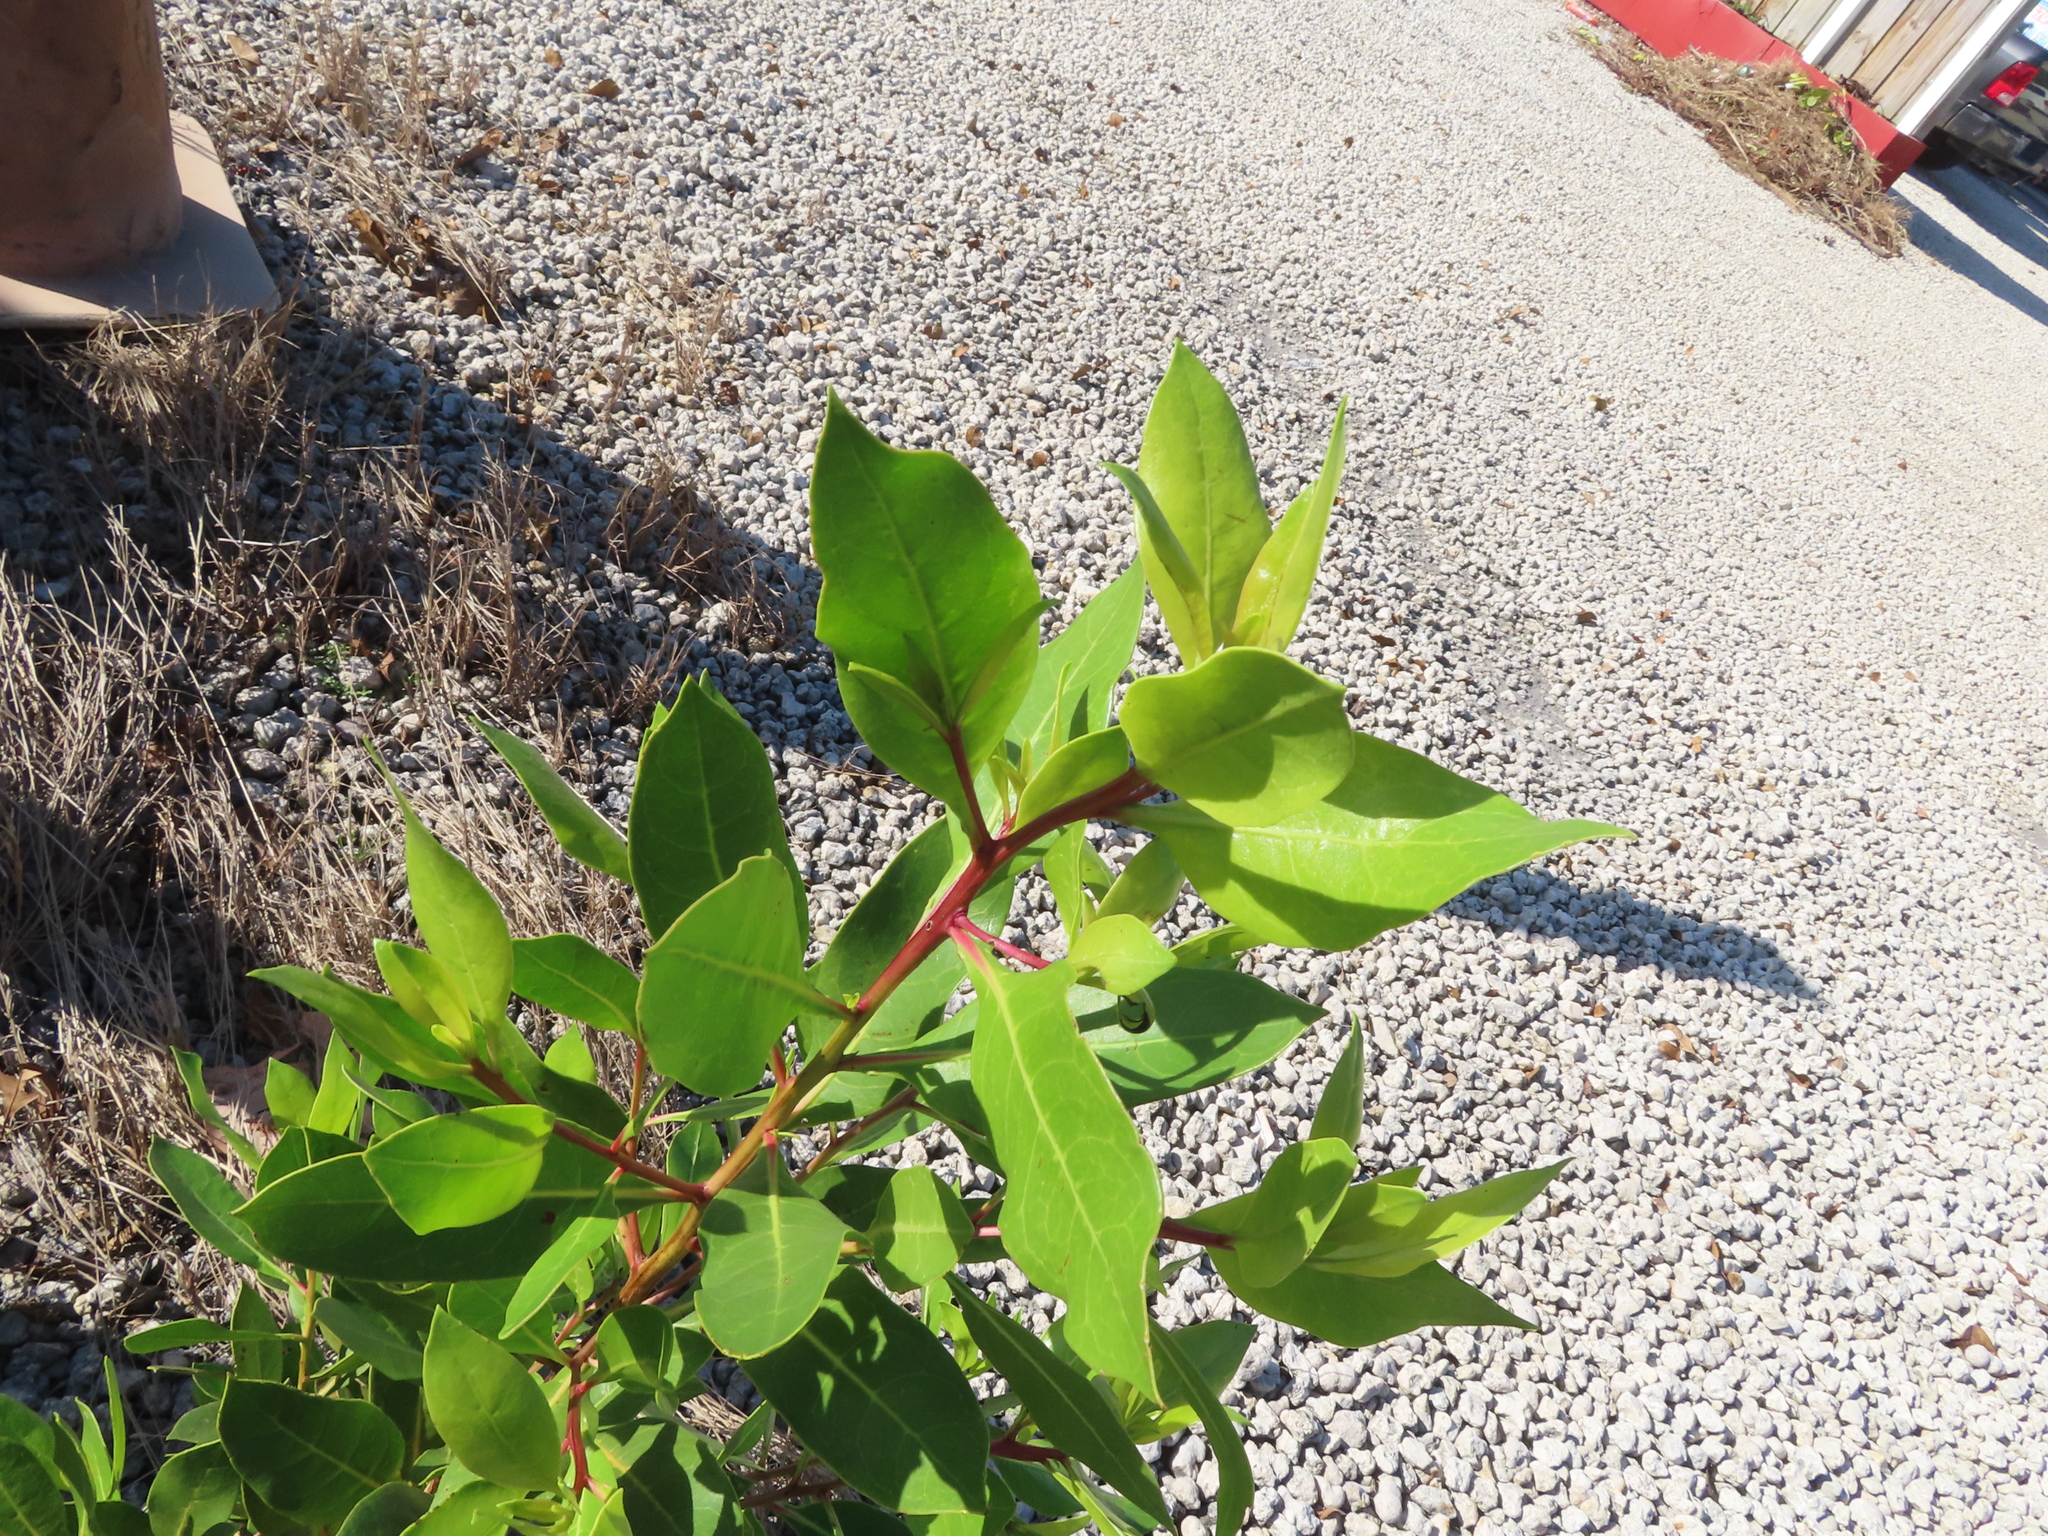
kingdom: Plantae
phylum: Tracheophyta
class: Magnoliopsida
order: Myrtales
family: Combretaceae
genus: Conocarpus
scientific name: Conocarpus erectus
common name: Button mangrove
